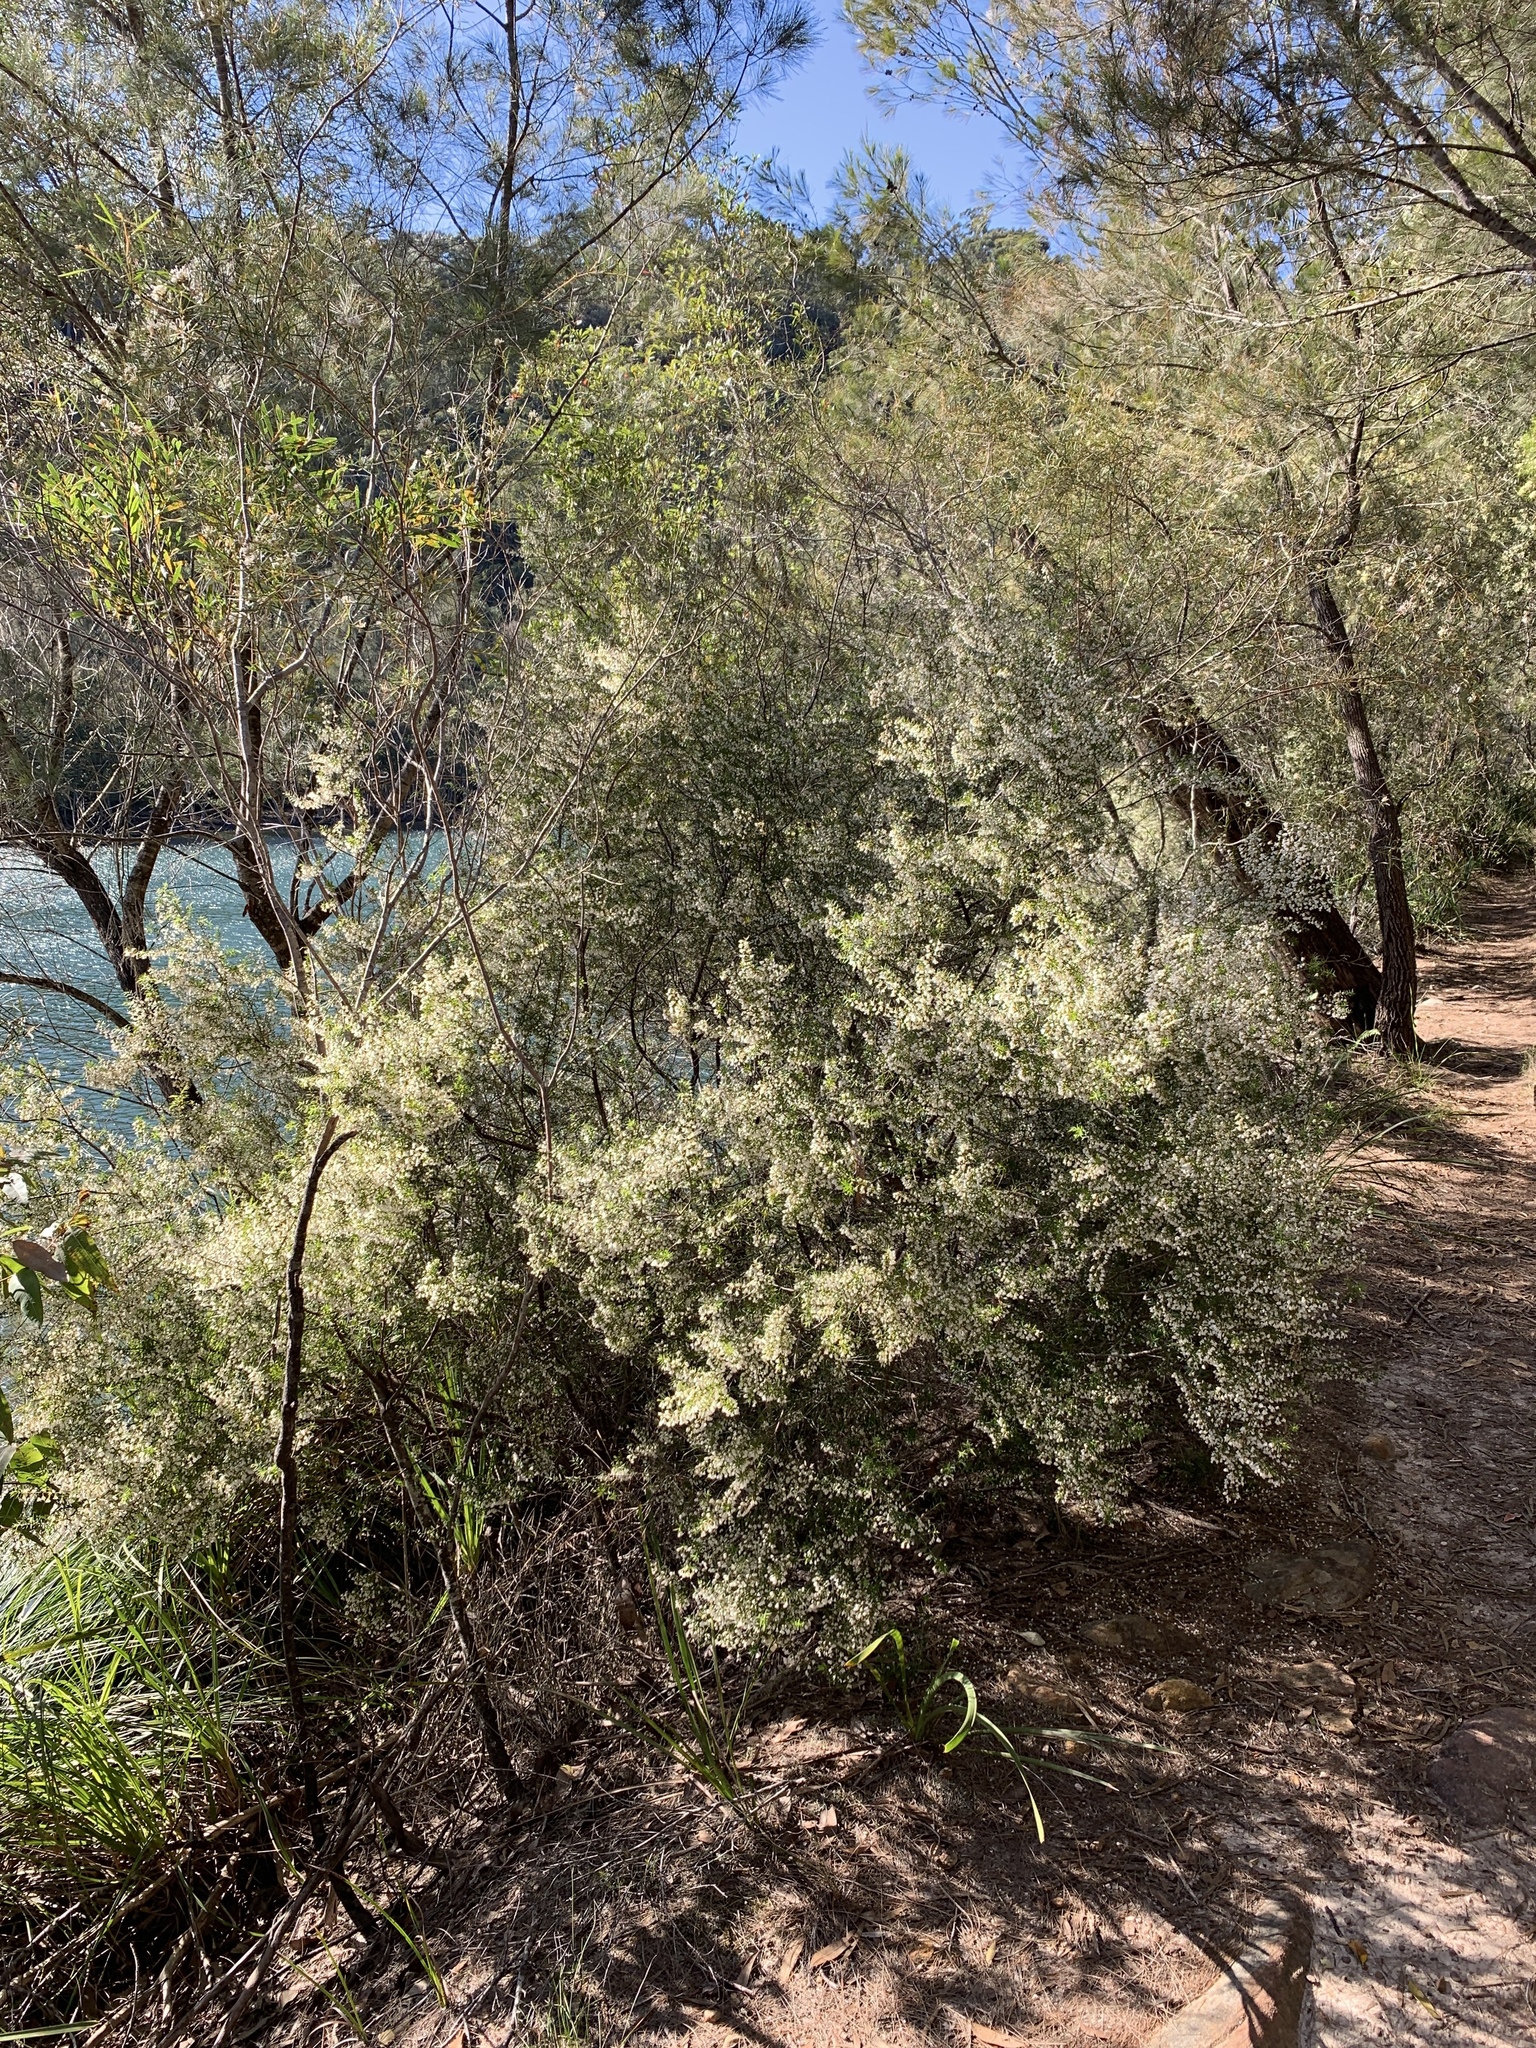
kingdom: Plantae
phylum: Tracheophyta
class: Magnoliopsida
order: Ericales
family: Ericaceae
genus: Styphelia
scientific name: Styphelia setigera
